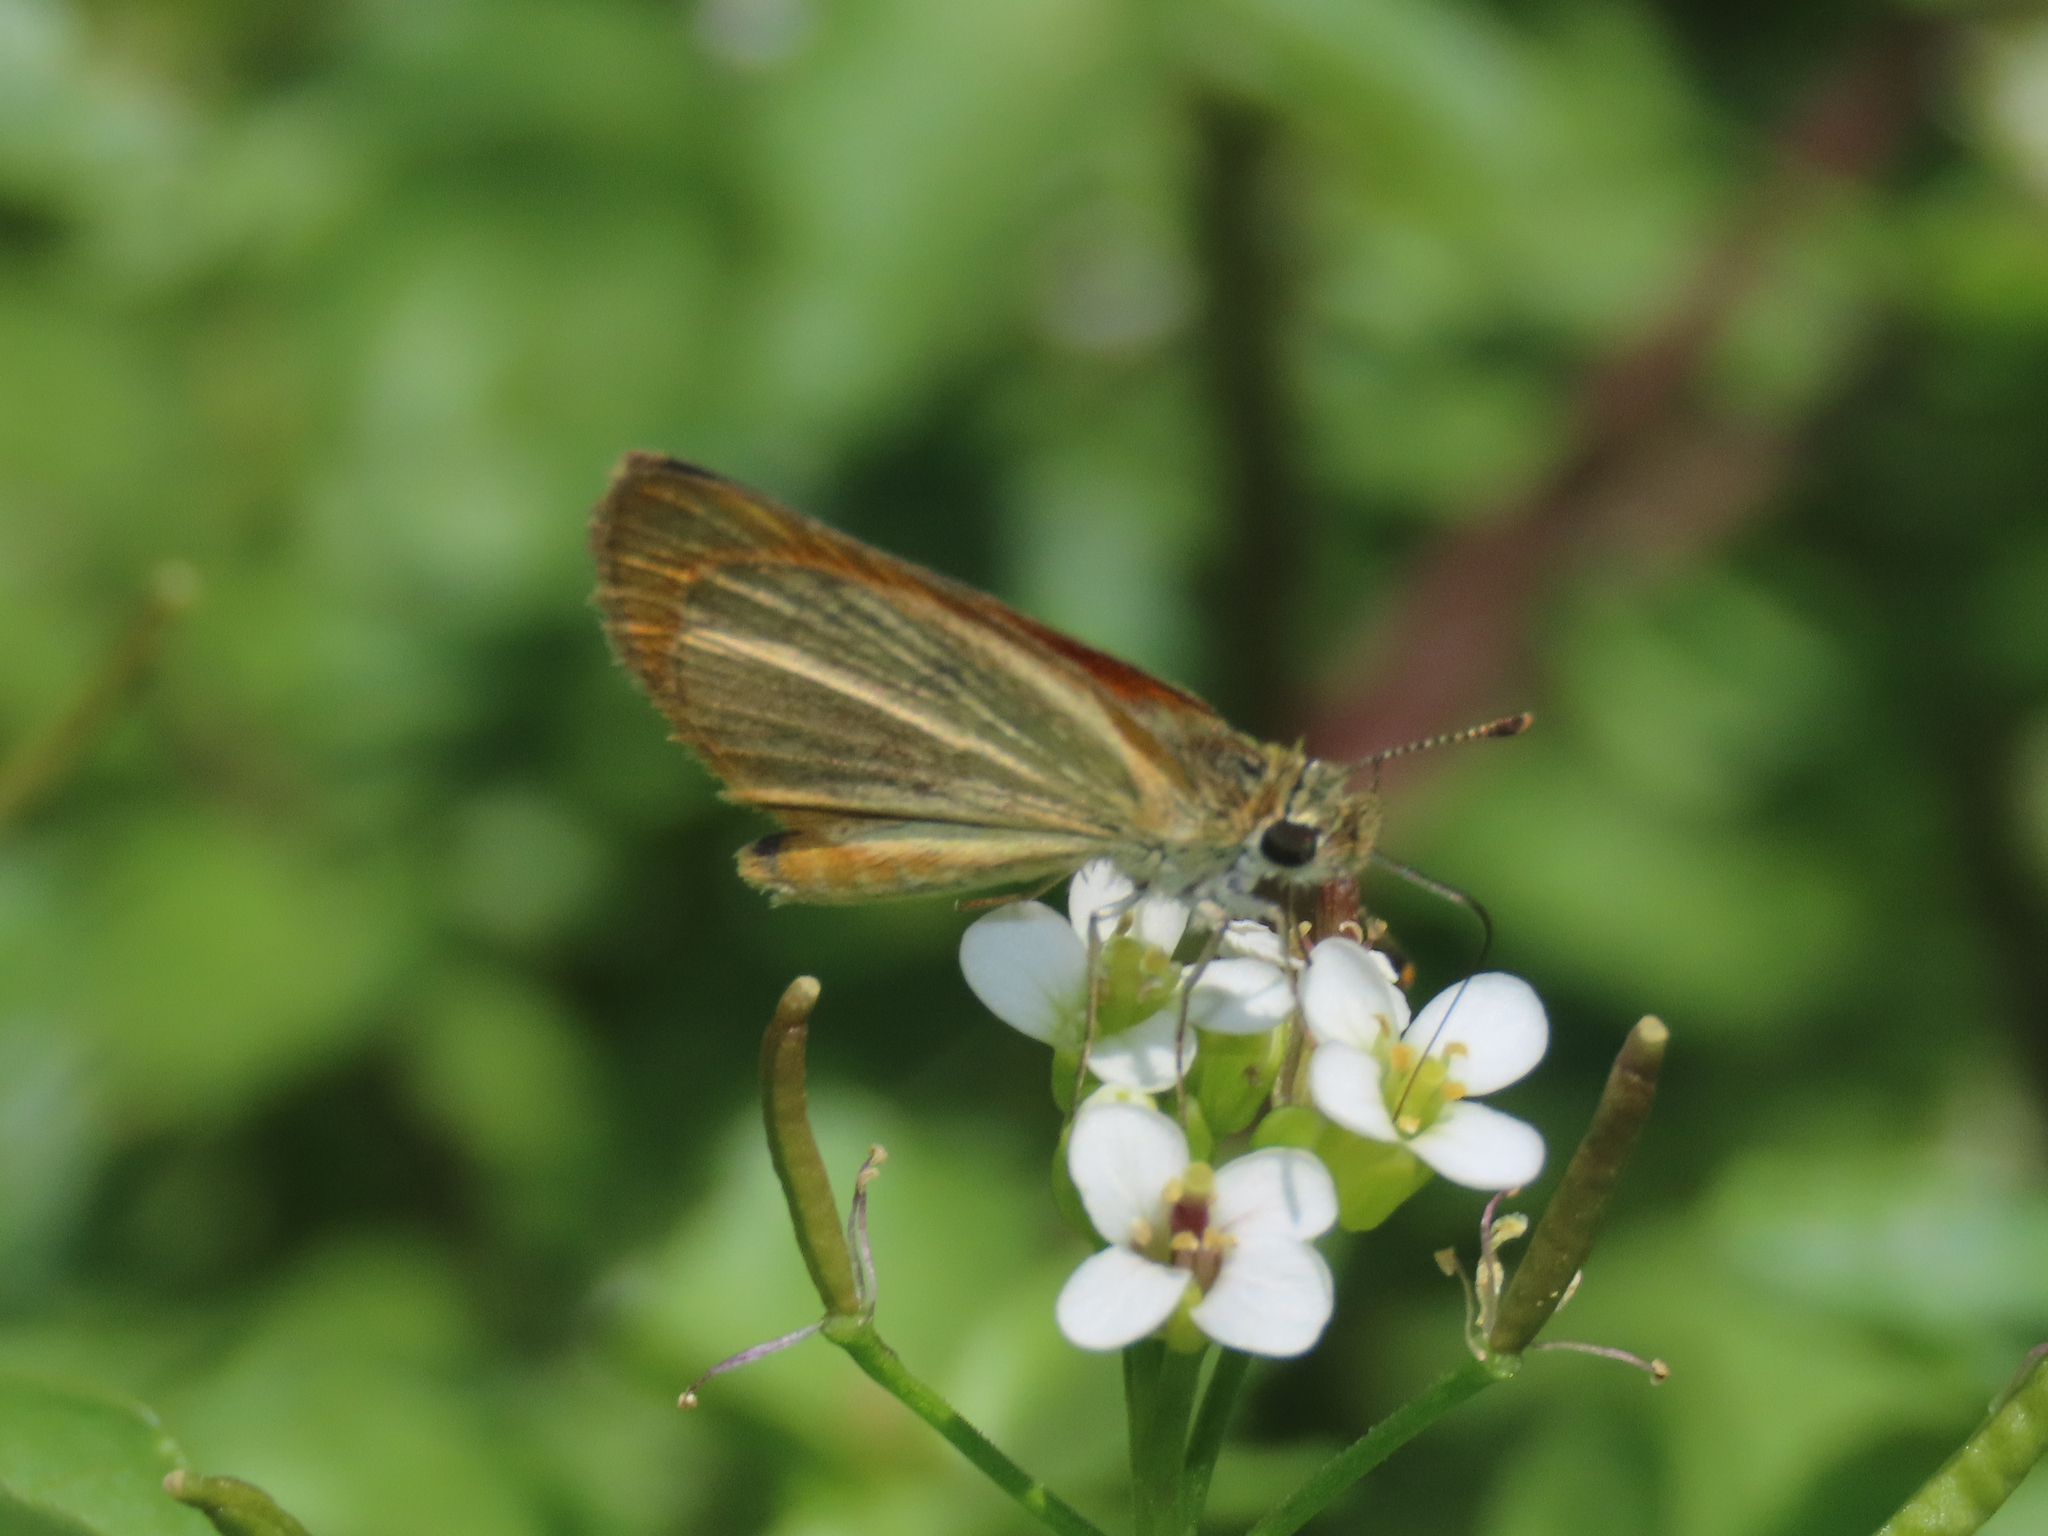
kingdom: Animalia
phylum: Arthropoda
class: Insecta
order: Lepidoptera
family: Hesperiidae
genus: Ancyloxypha
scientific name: Ancyloxypha arene
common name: Tropical least skipper
